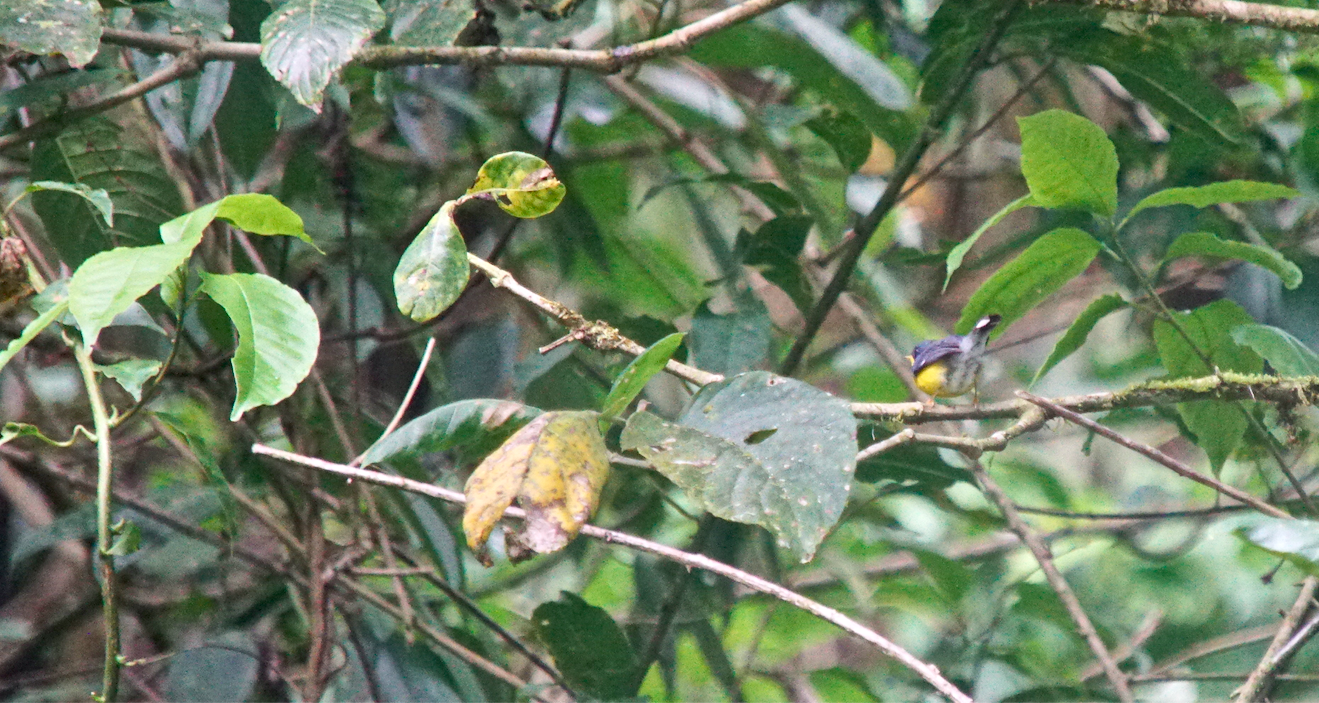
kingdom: Animalia
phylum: Chordata
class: Aves
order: Passeriformes
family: Parulidae
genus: Setophaga
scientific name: Setophaga pitiayumi
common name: Tropical parula
